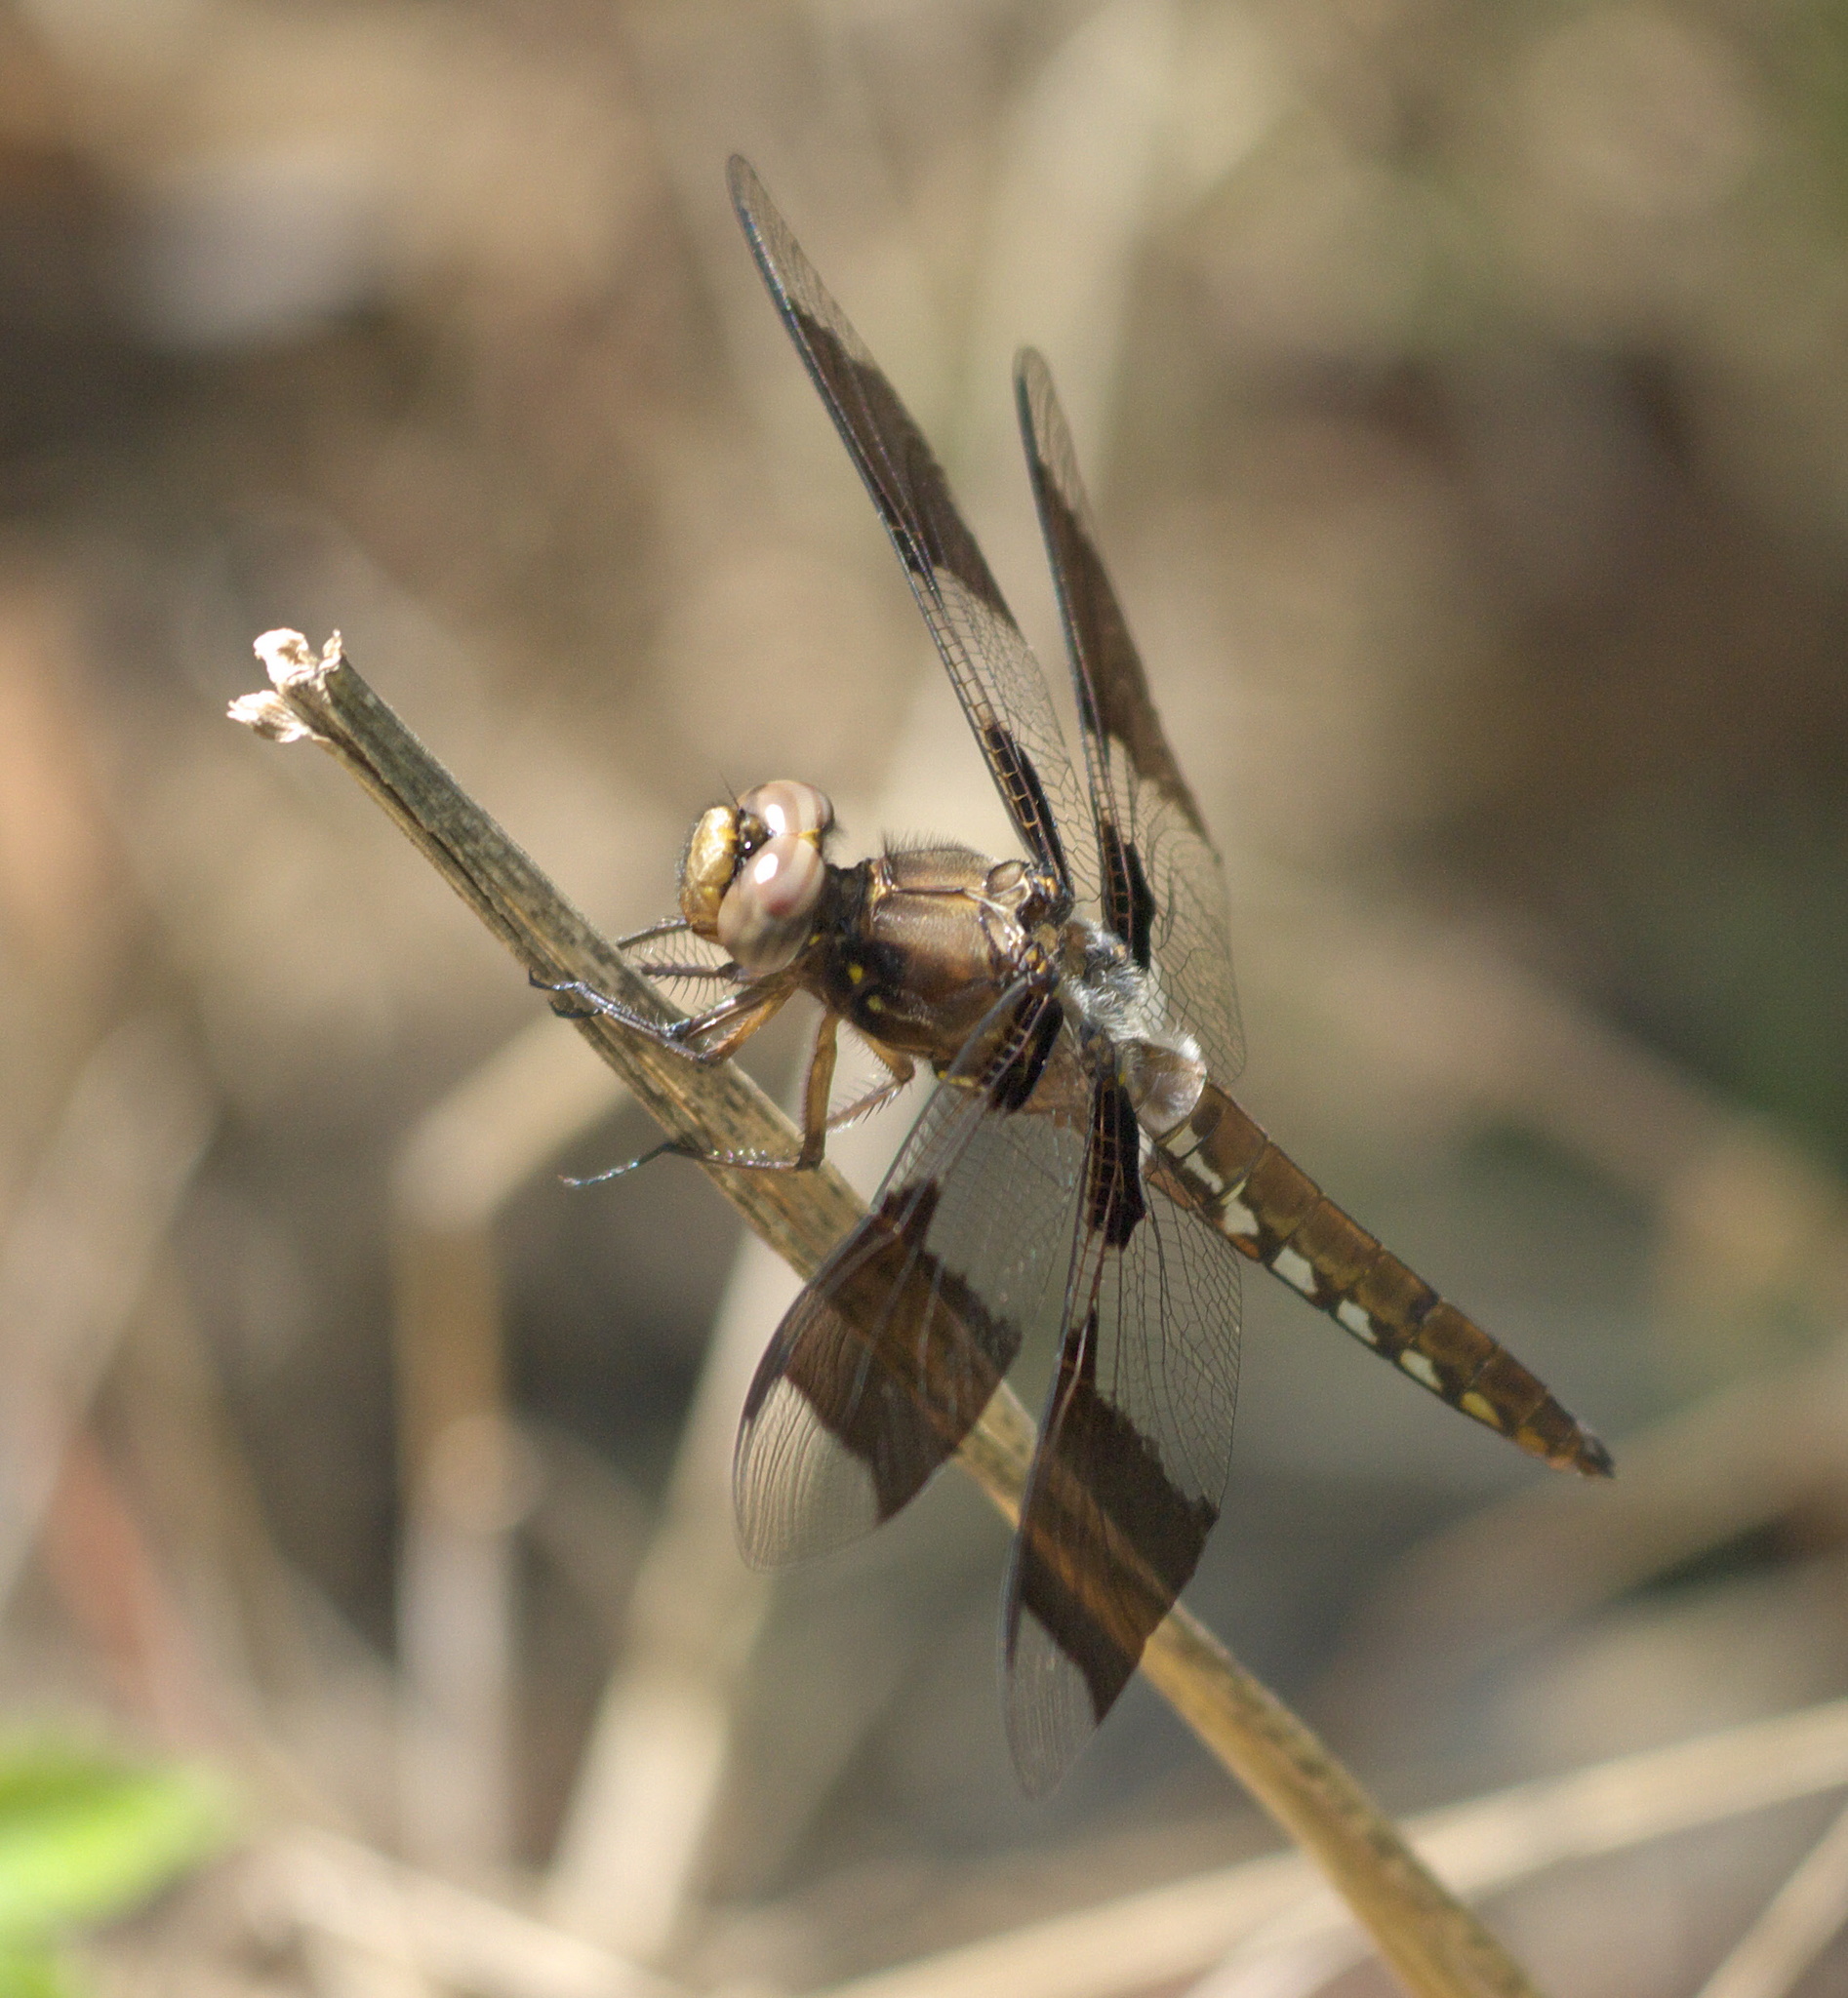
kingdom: Animalia
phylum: Arthropoda
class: Insecta
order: Odonata
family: Libellulidae
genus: Plathemis
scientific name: Plathemis lydia
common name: Common whitetail
